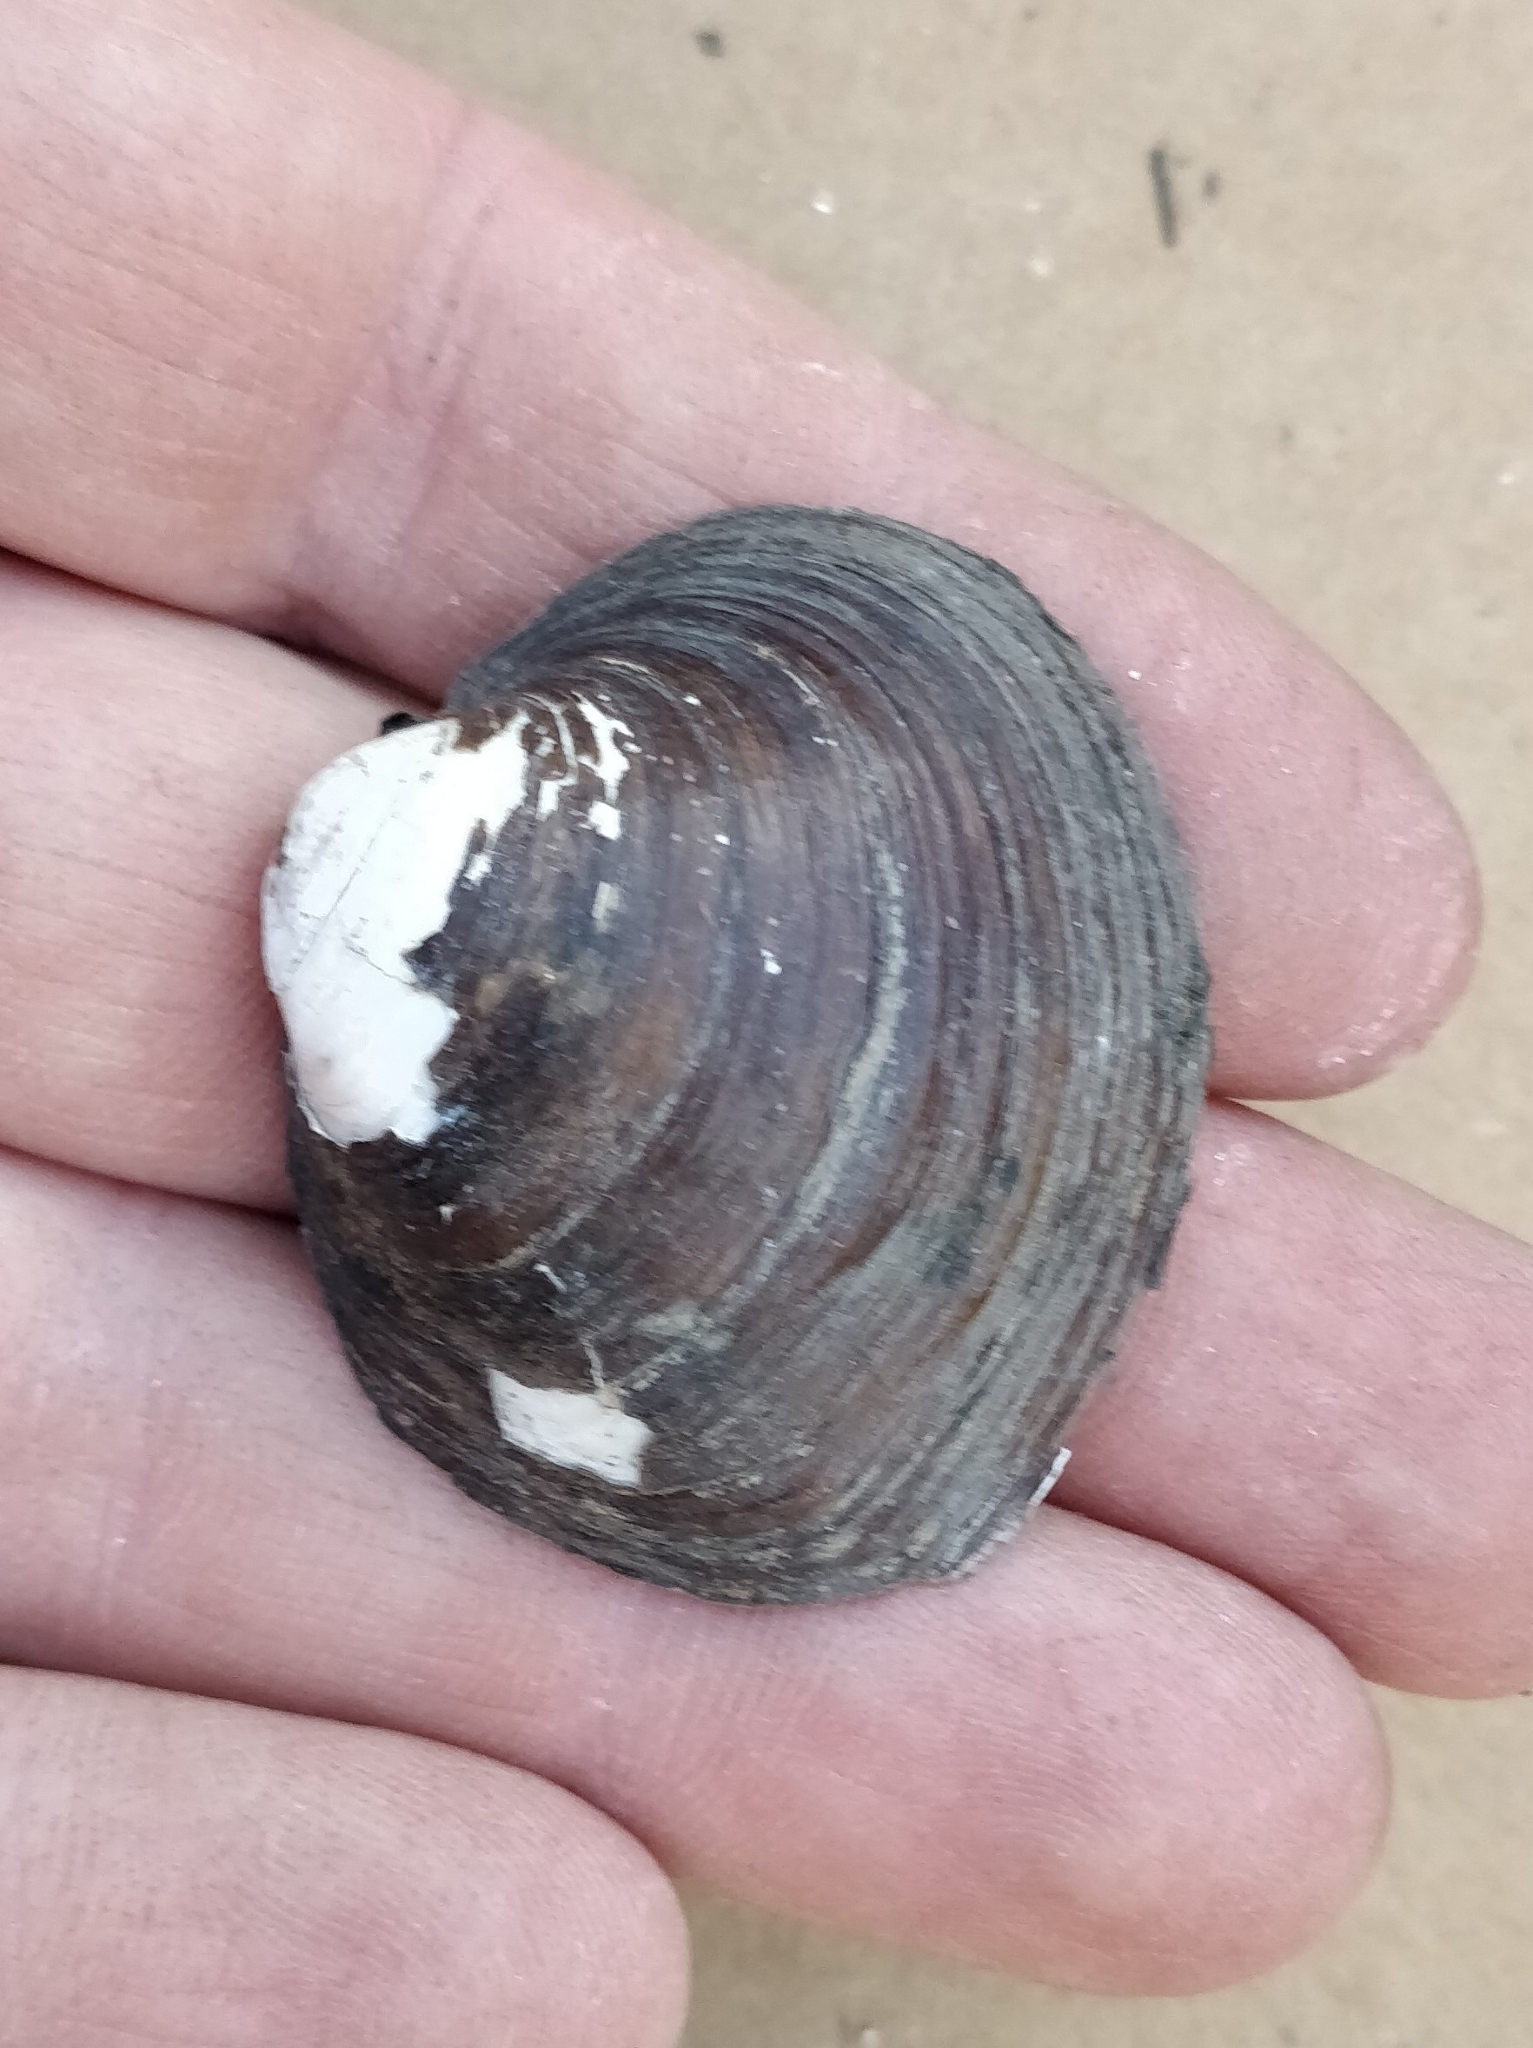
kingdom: Animalia
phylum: Mollusca
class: Bivalvia
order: Unionida
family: Unionidae
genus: Cyclonaias
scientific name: Cyclonaias pustulosa
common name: Pimpleback
